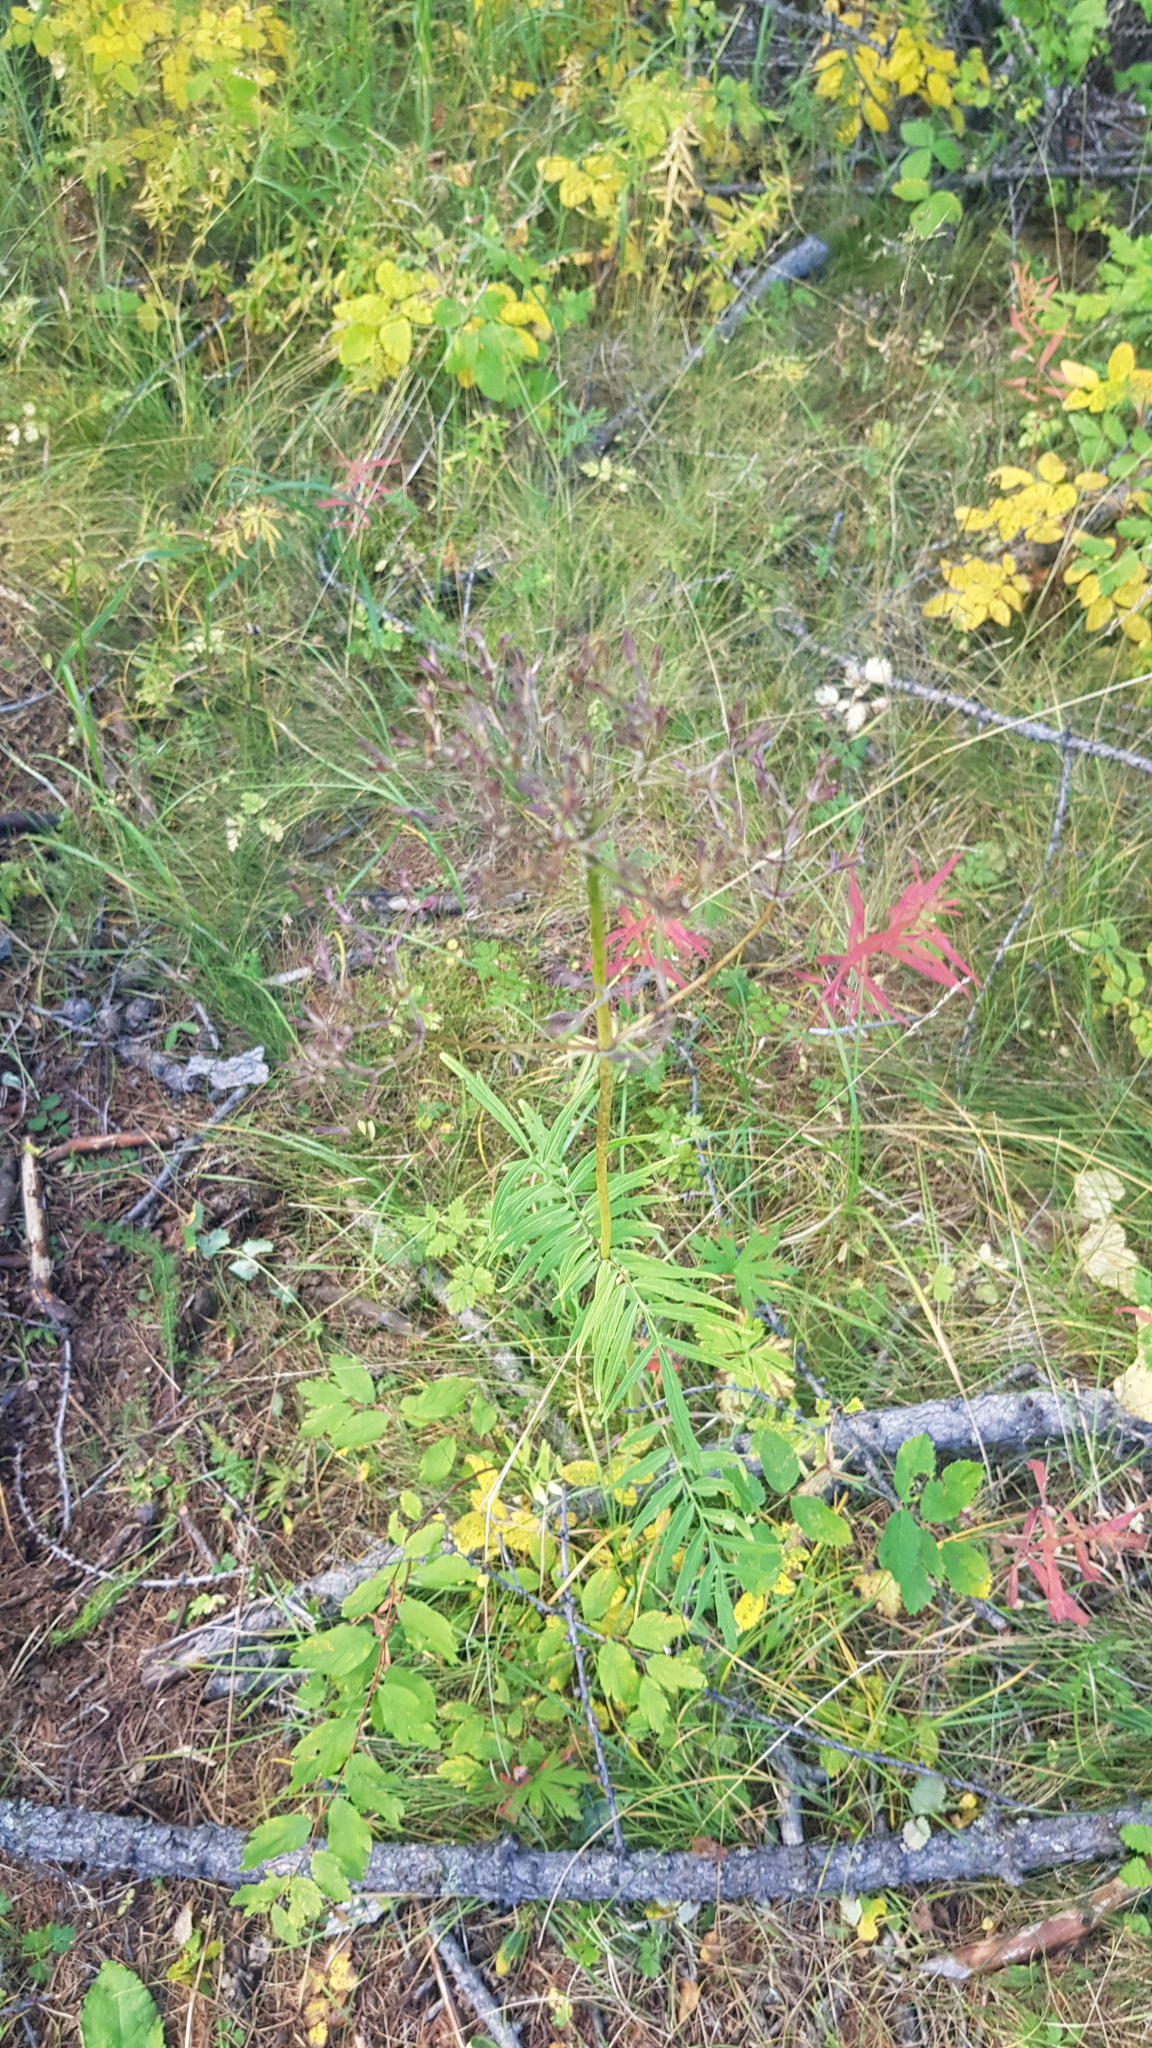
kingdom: Plantae
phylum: Tracheophyta
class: Magnoliopsida
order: Dipsacales
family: Caprifoliaceae
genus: Valeriana
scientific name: Valeriana officinalis
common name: Common valerian
